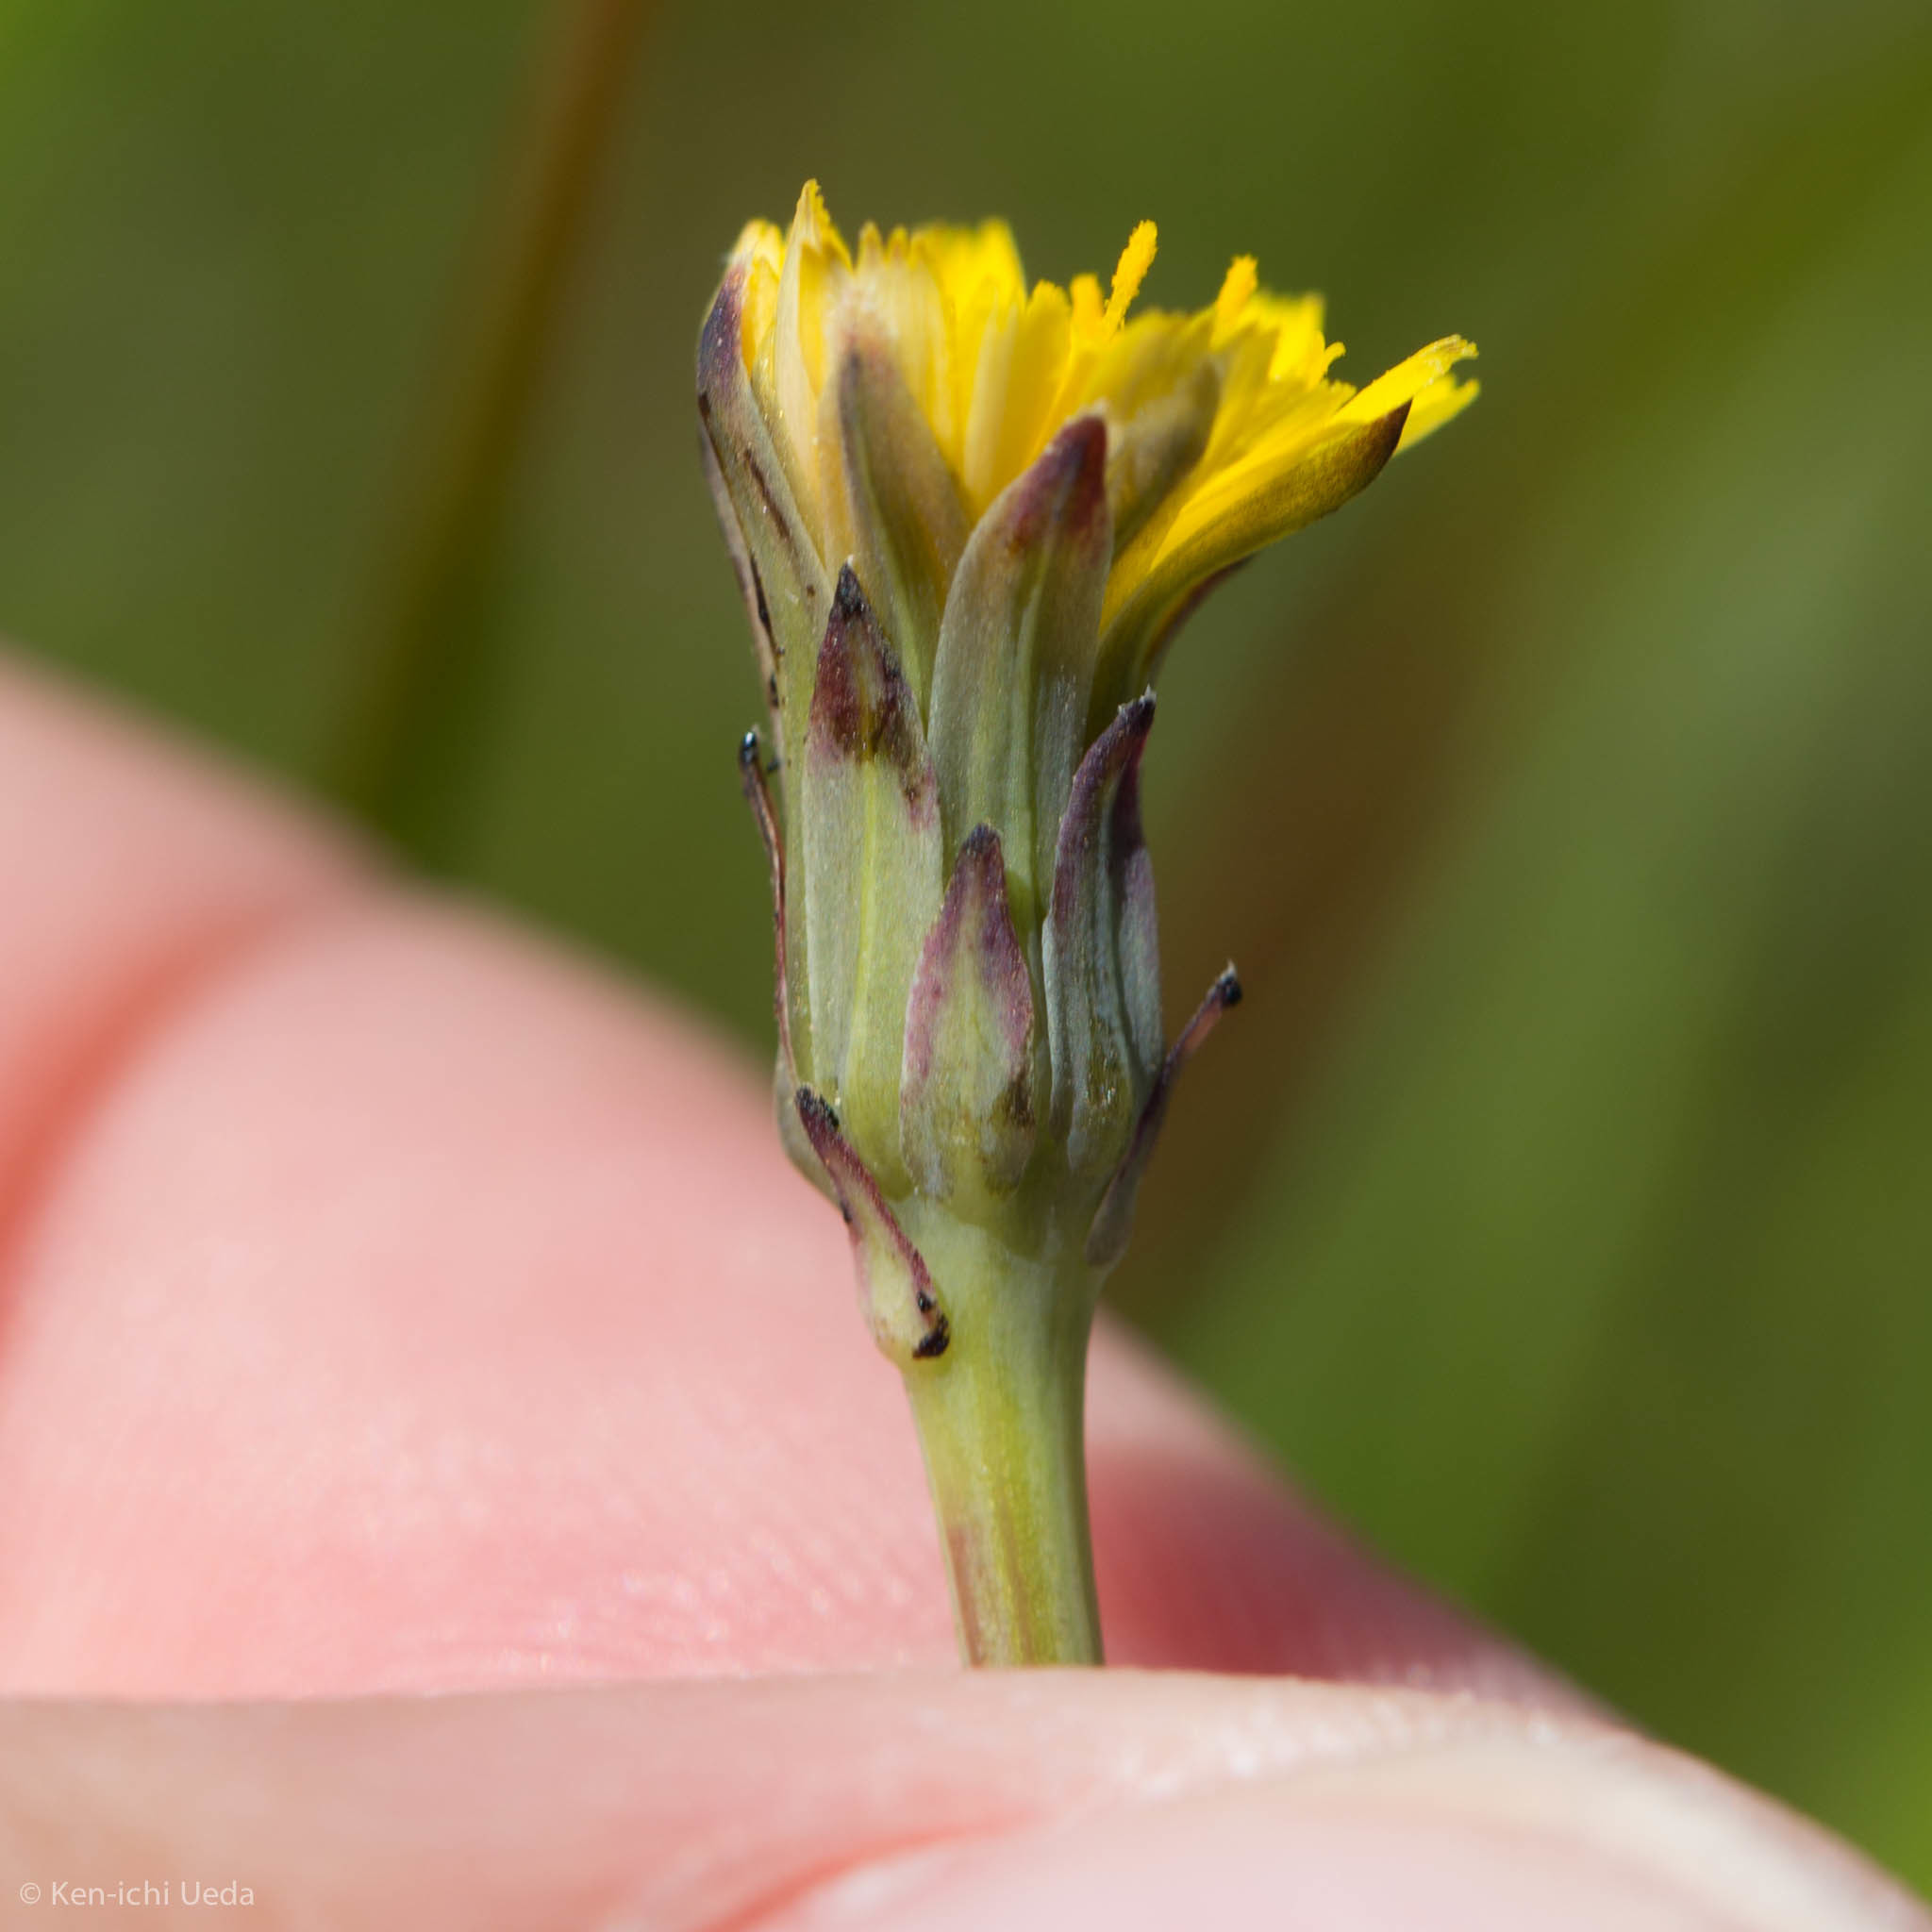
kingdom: Plantae
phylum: Tracheophyta
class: Magnoliopsida
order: Asterales
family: Asteraceae
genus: Hypochaeris
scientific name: Hypochaeris glabra
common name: Smooth catsear
